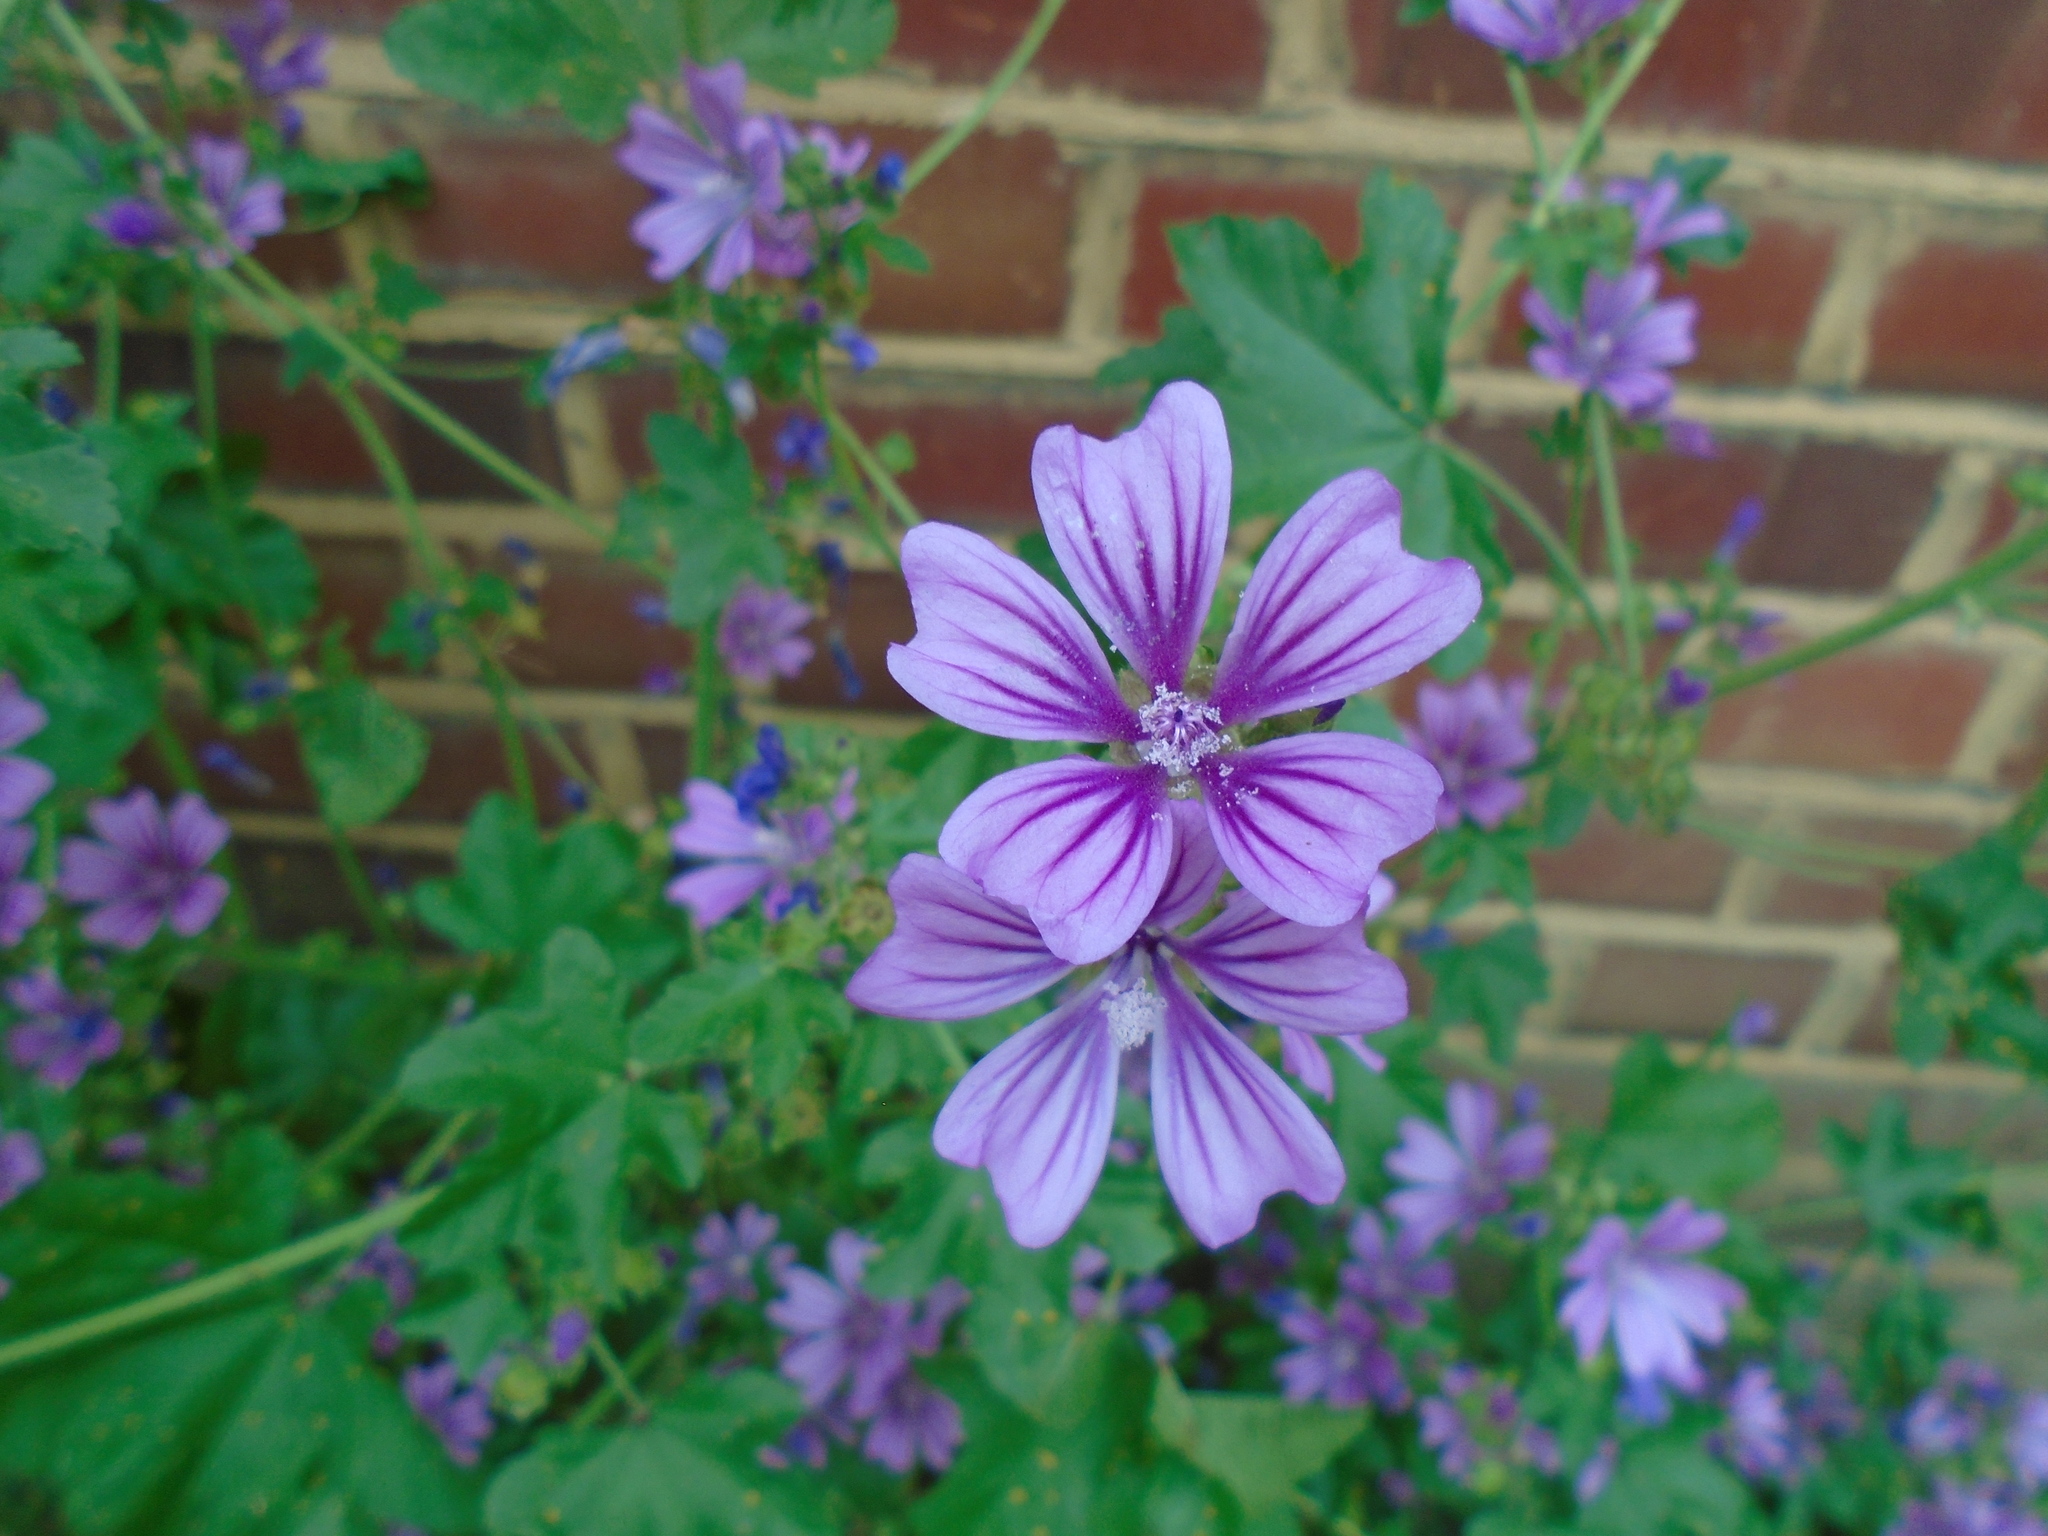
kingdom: Plantae
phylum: Tracheophyta
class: Magnoliopsida
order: Malvales
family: Malvaceae
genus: Malva
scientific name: Malva sylvestris
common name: Common mallow
